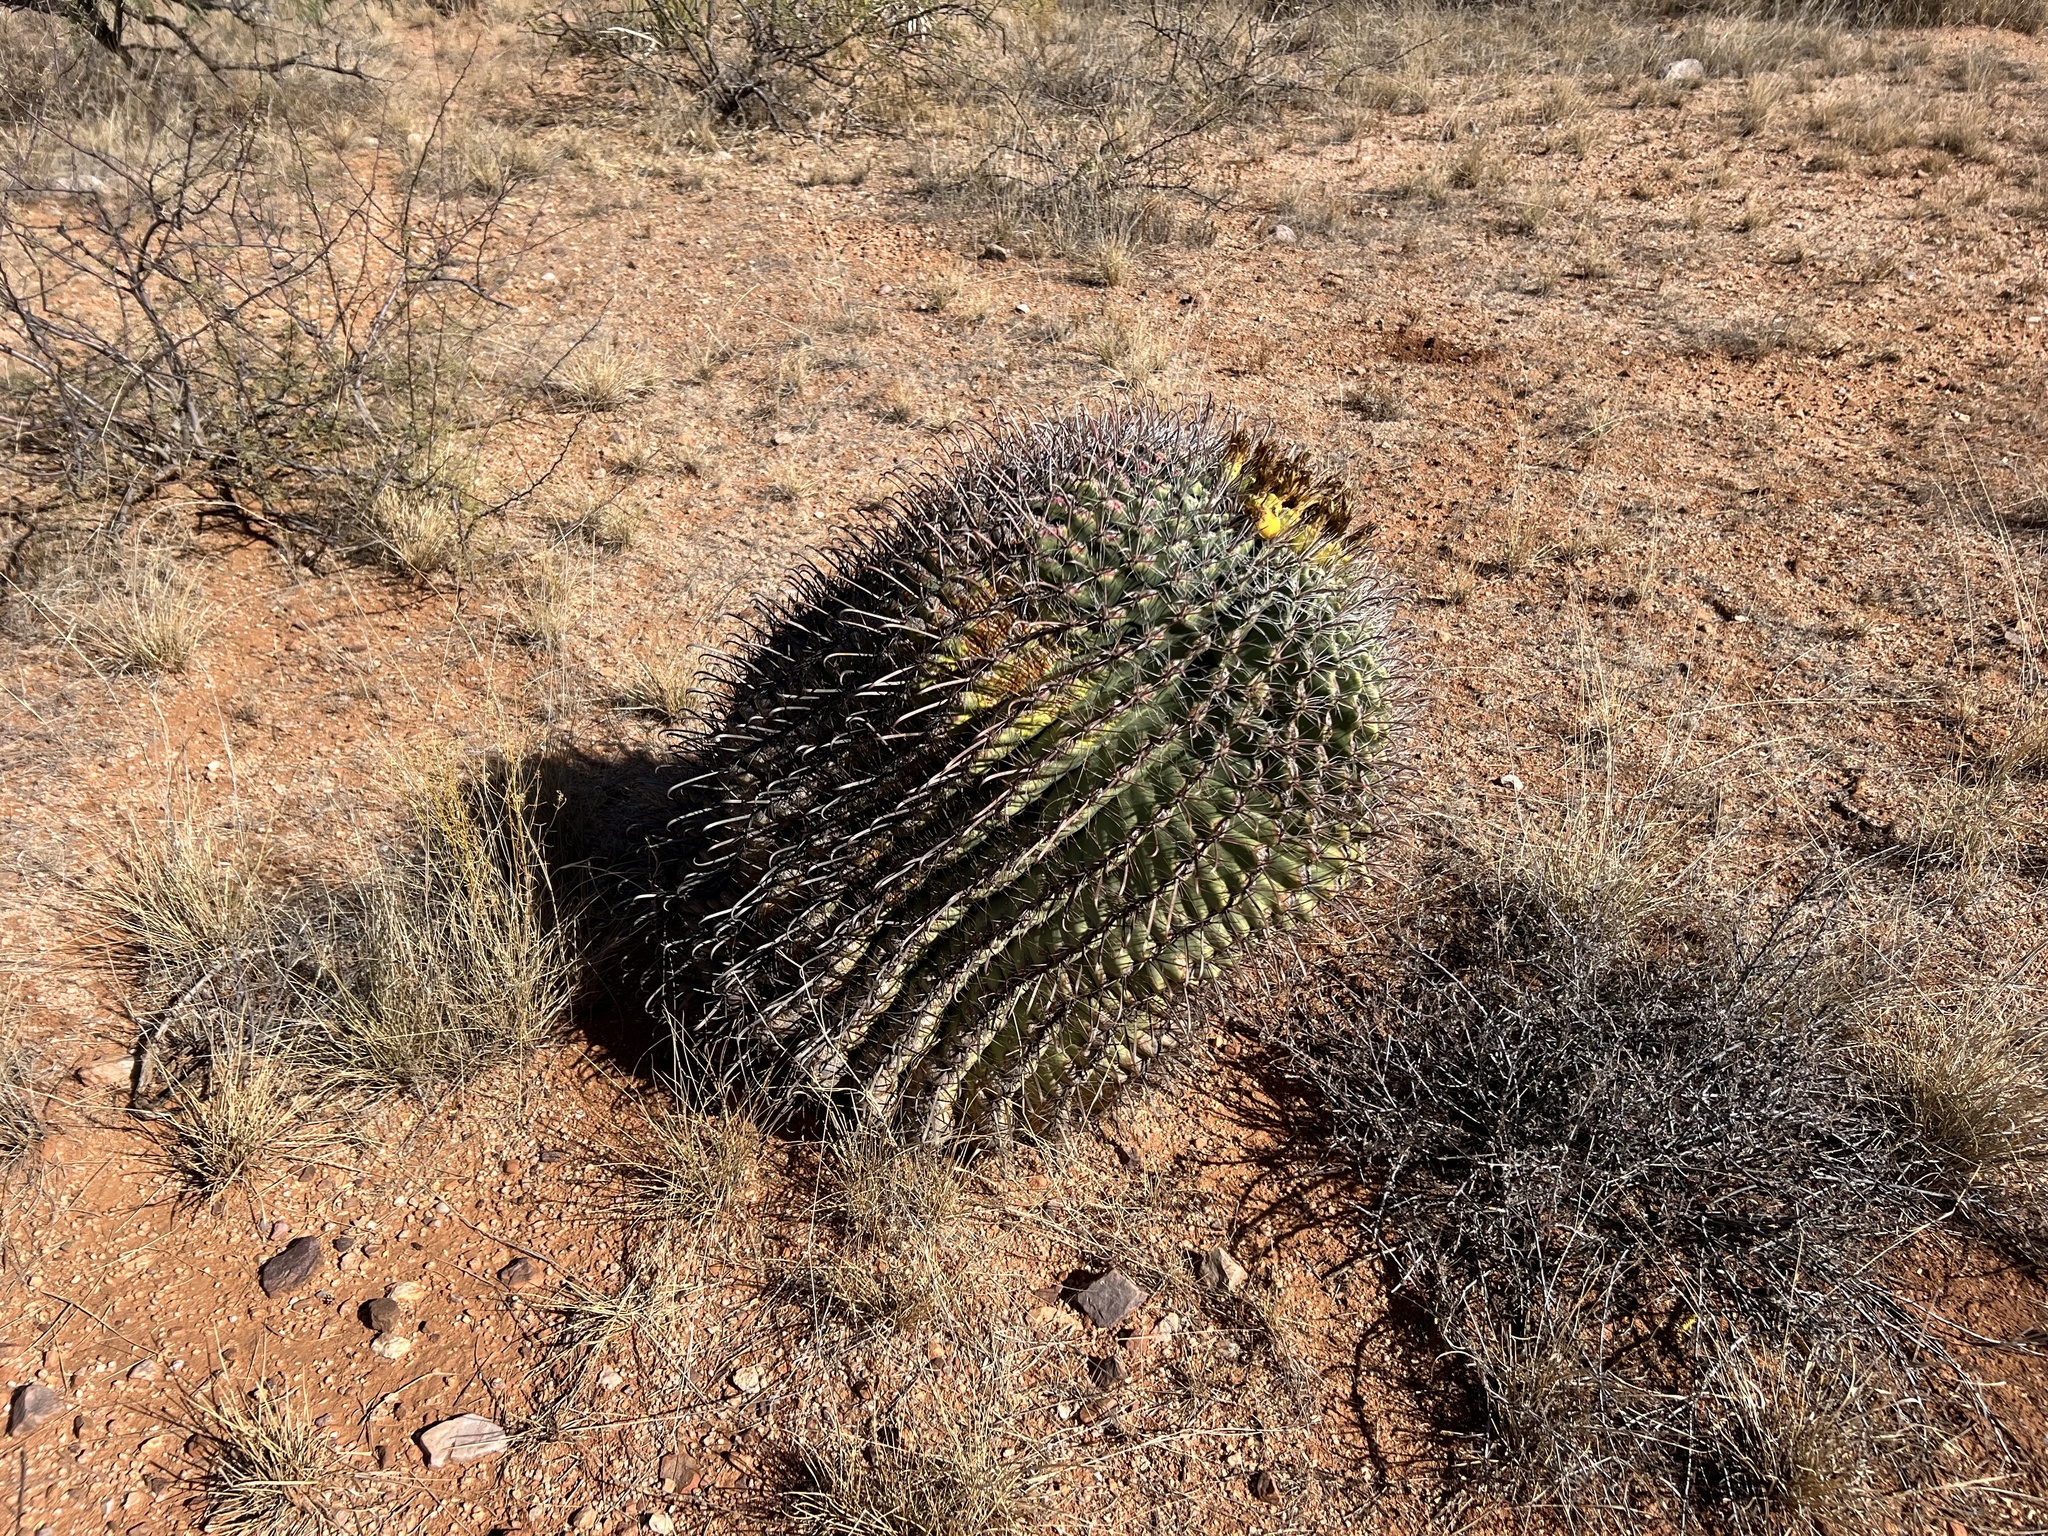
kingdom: Plantae
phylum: Tracheophyta
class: Magnoliopsida
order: Caryophyllales
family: Cactaceae
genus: Ferocactus
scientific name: Ferocactus wislizeni
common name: Candy barrel cactus
